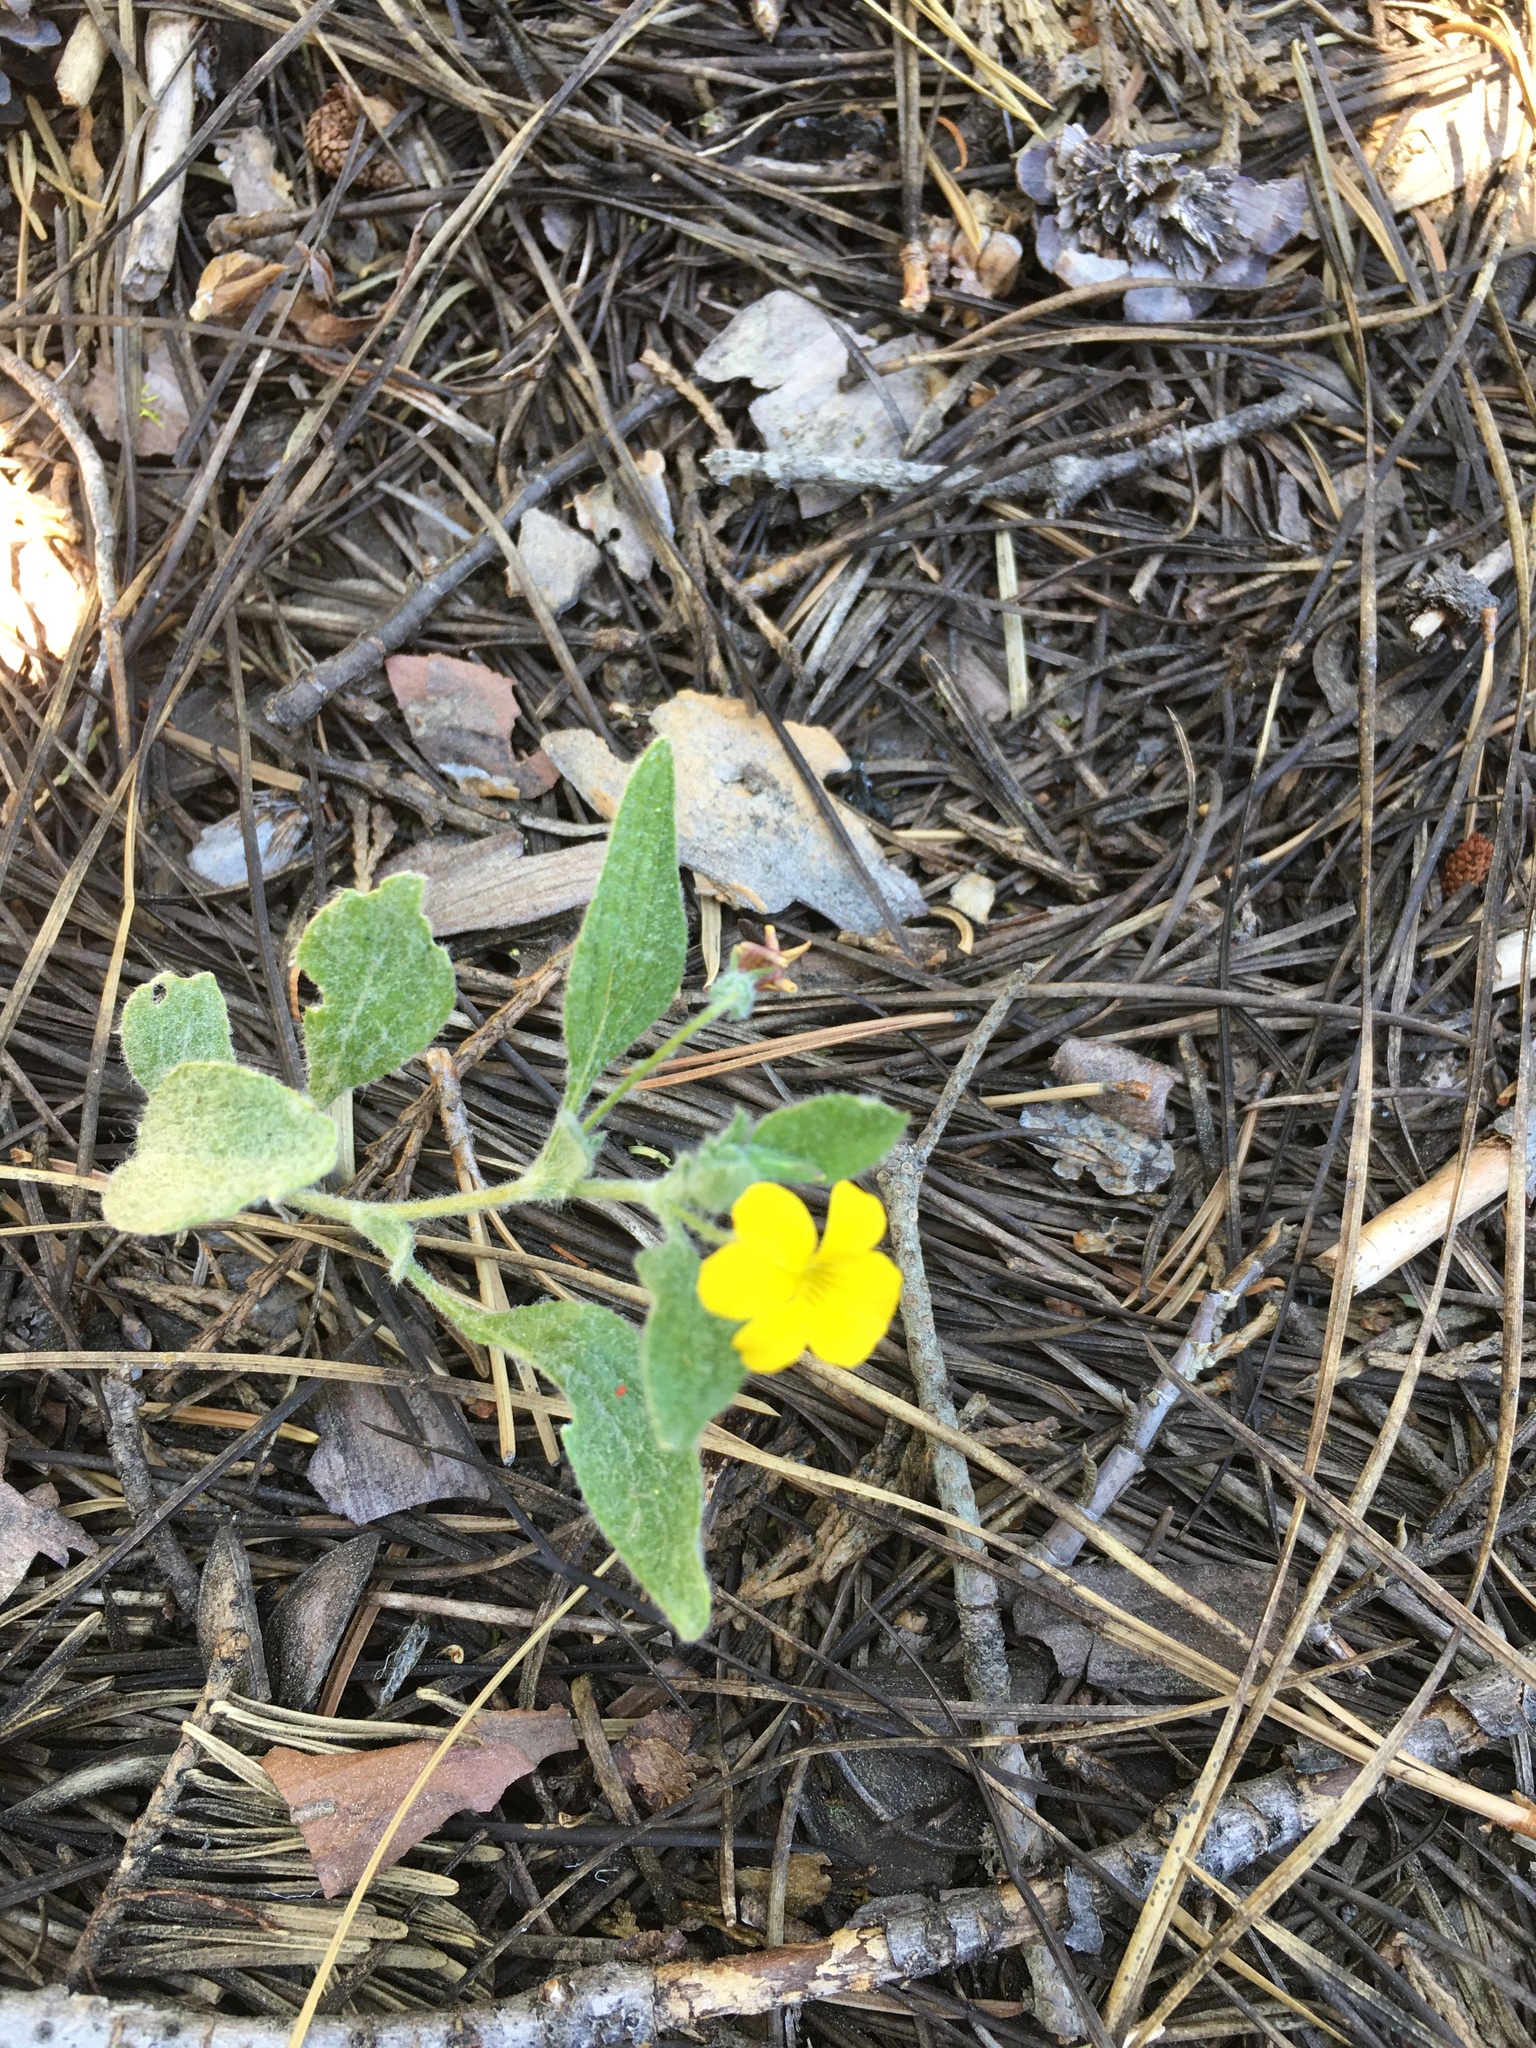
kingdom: Plantae
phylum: Tracheophyta
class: Magnoliopsida
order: Malpighiales
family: Violaceae
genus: Viola
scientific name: Viola tomentosa
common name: Woolly violet
